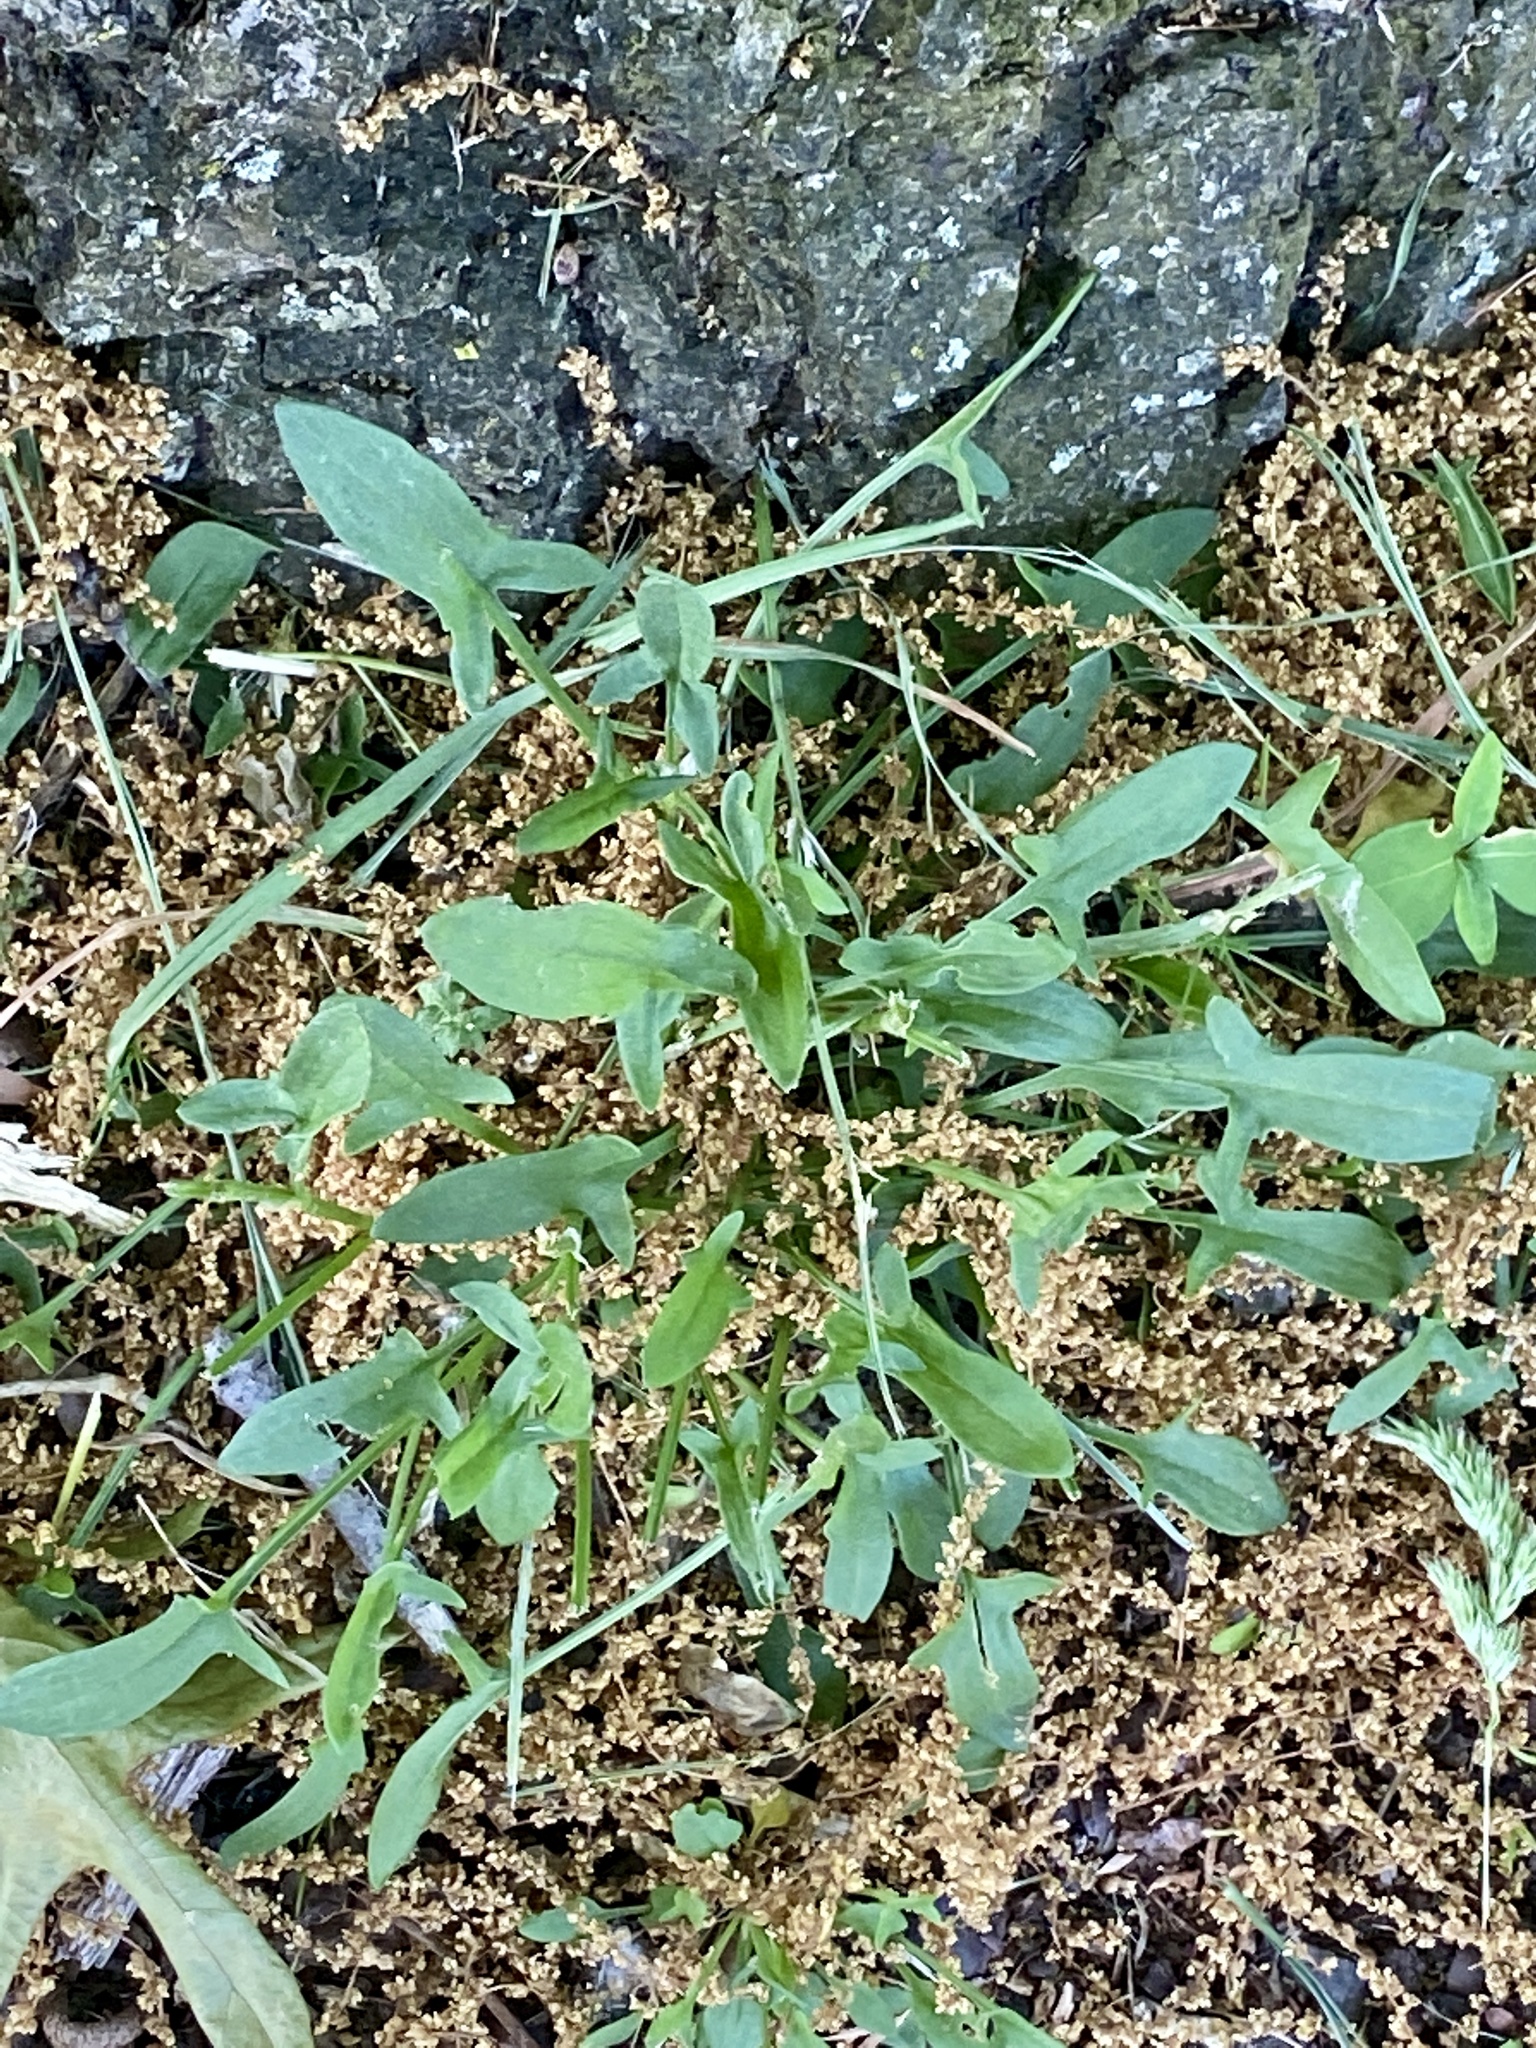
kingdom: Plantae
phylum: Tracheophyta
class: Magnoliopsida
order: Caryophyllales
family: Polygonaceae
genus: Rumex
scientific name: Rumex acetosella
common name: Common sheep sorrel
